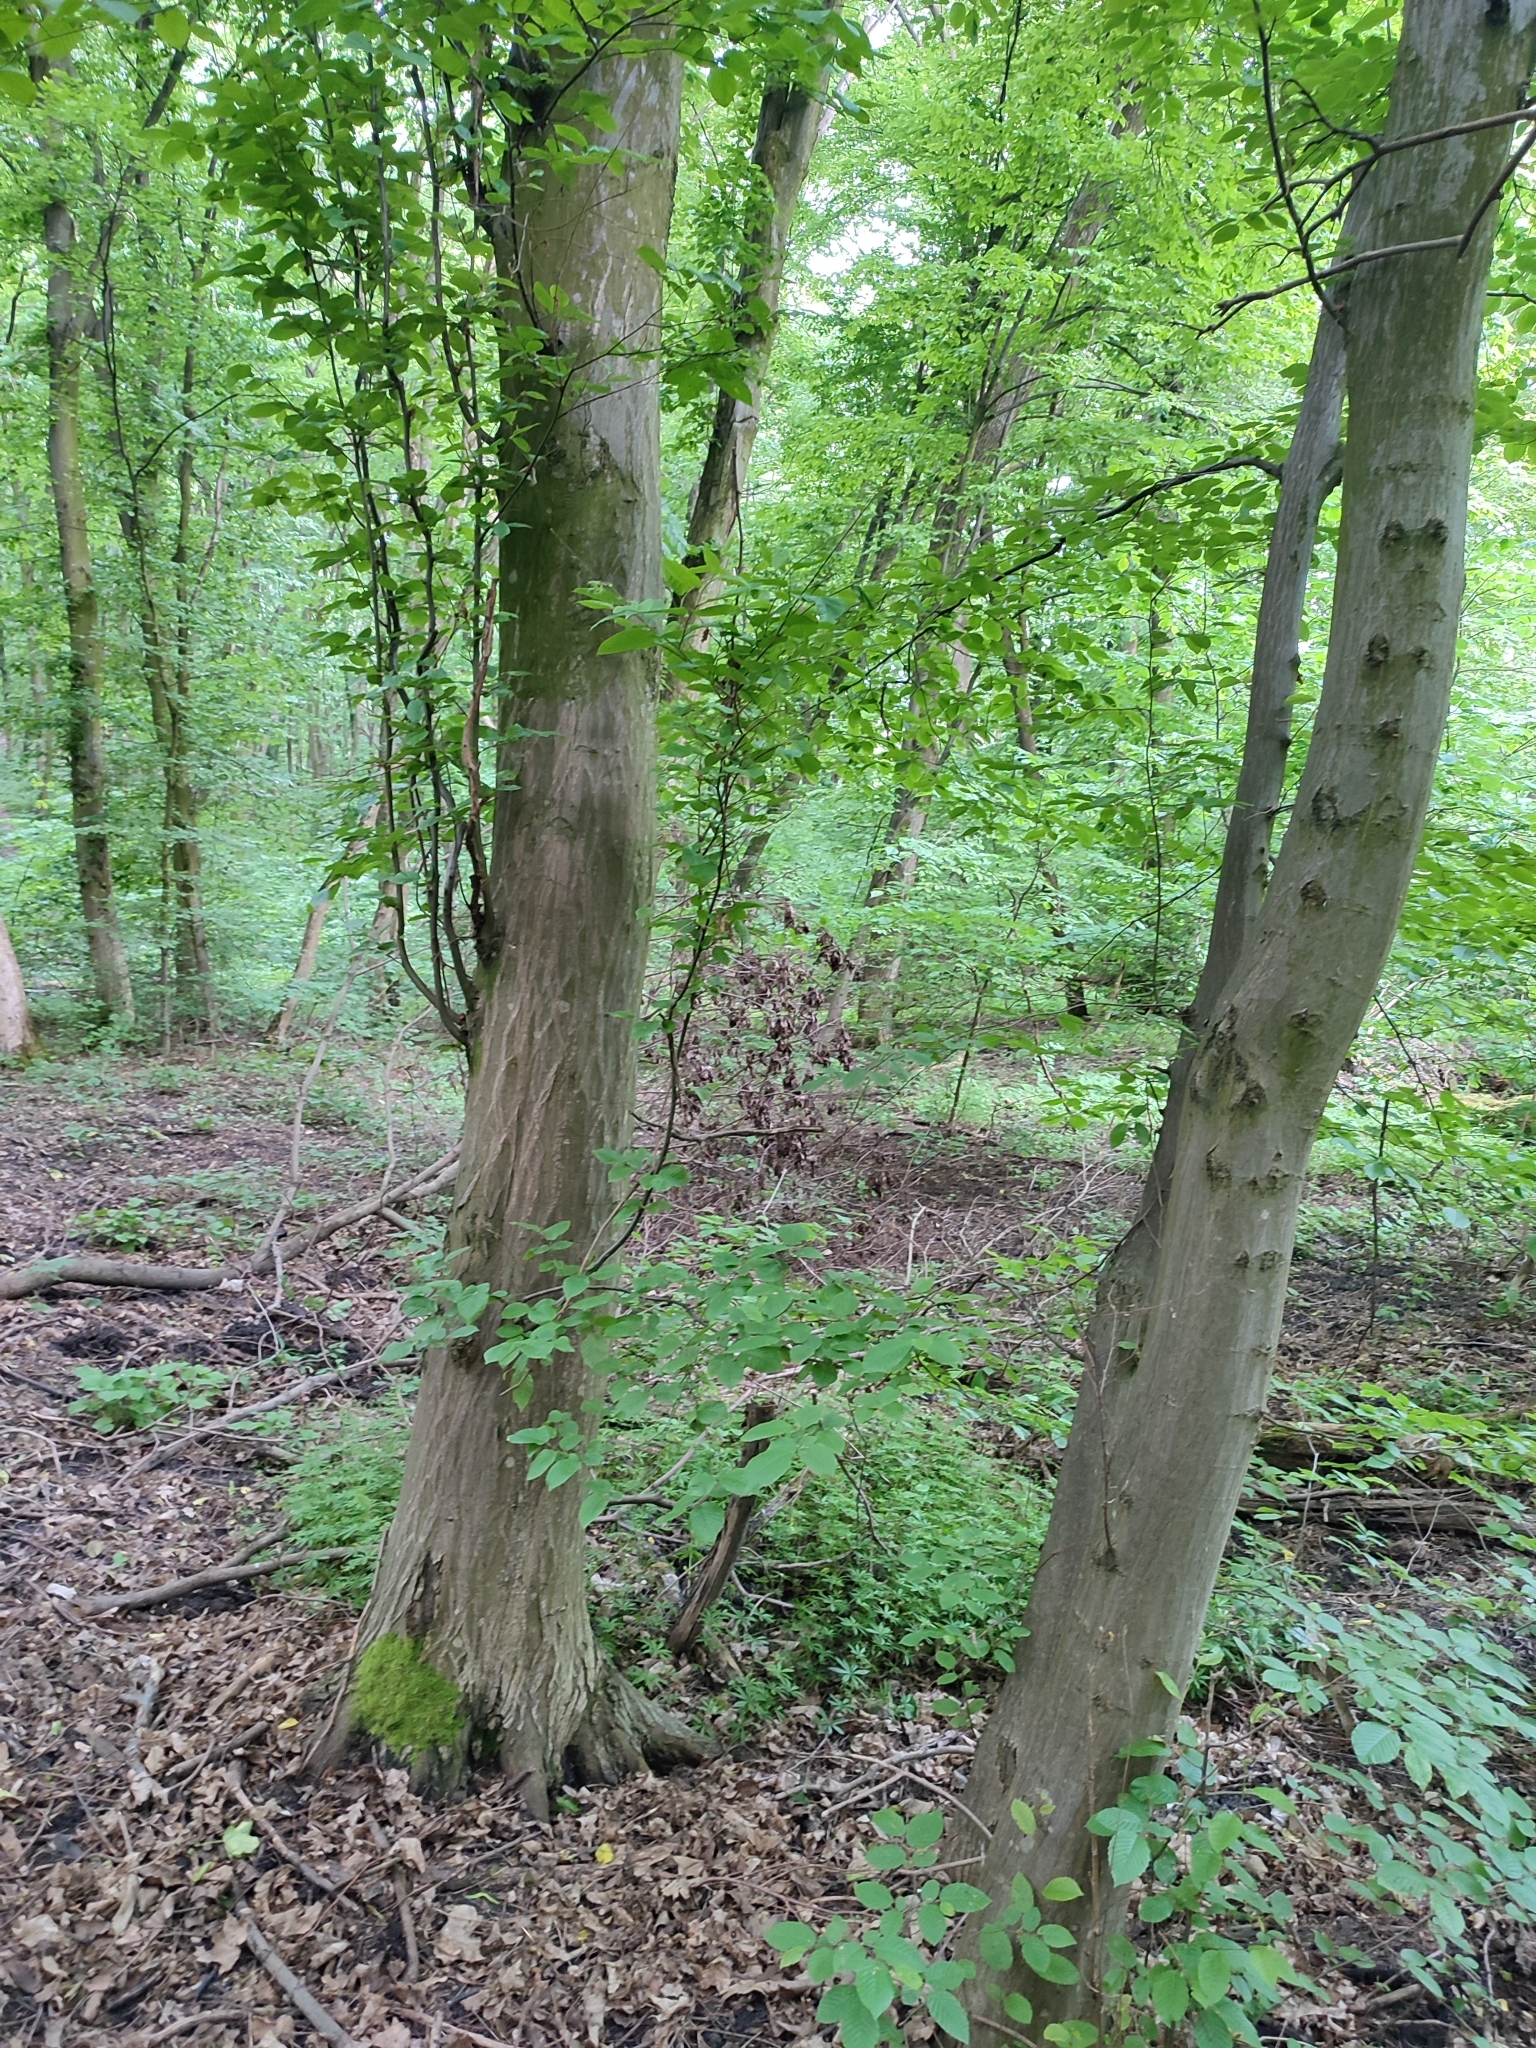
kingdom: Plantae
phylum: Tracheophyta
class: Magnoliopsida
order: Fagales
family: Betulaceae
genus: Carpinus
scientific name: Carpinus betulus
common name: Hornbeam
